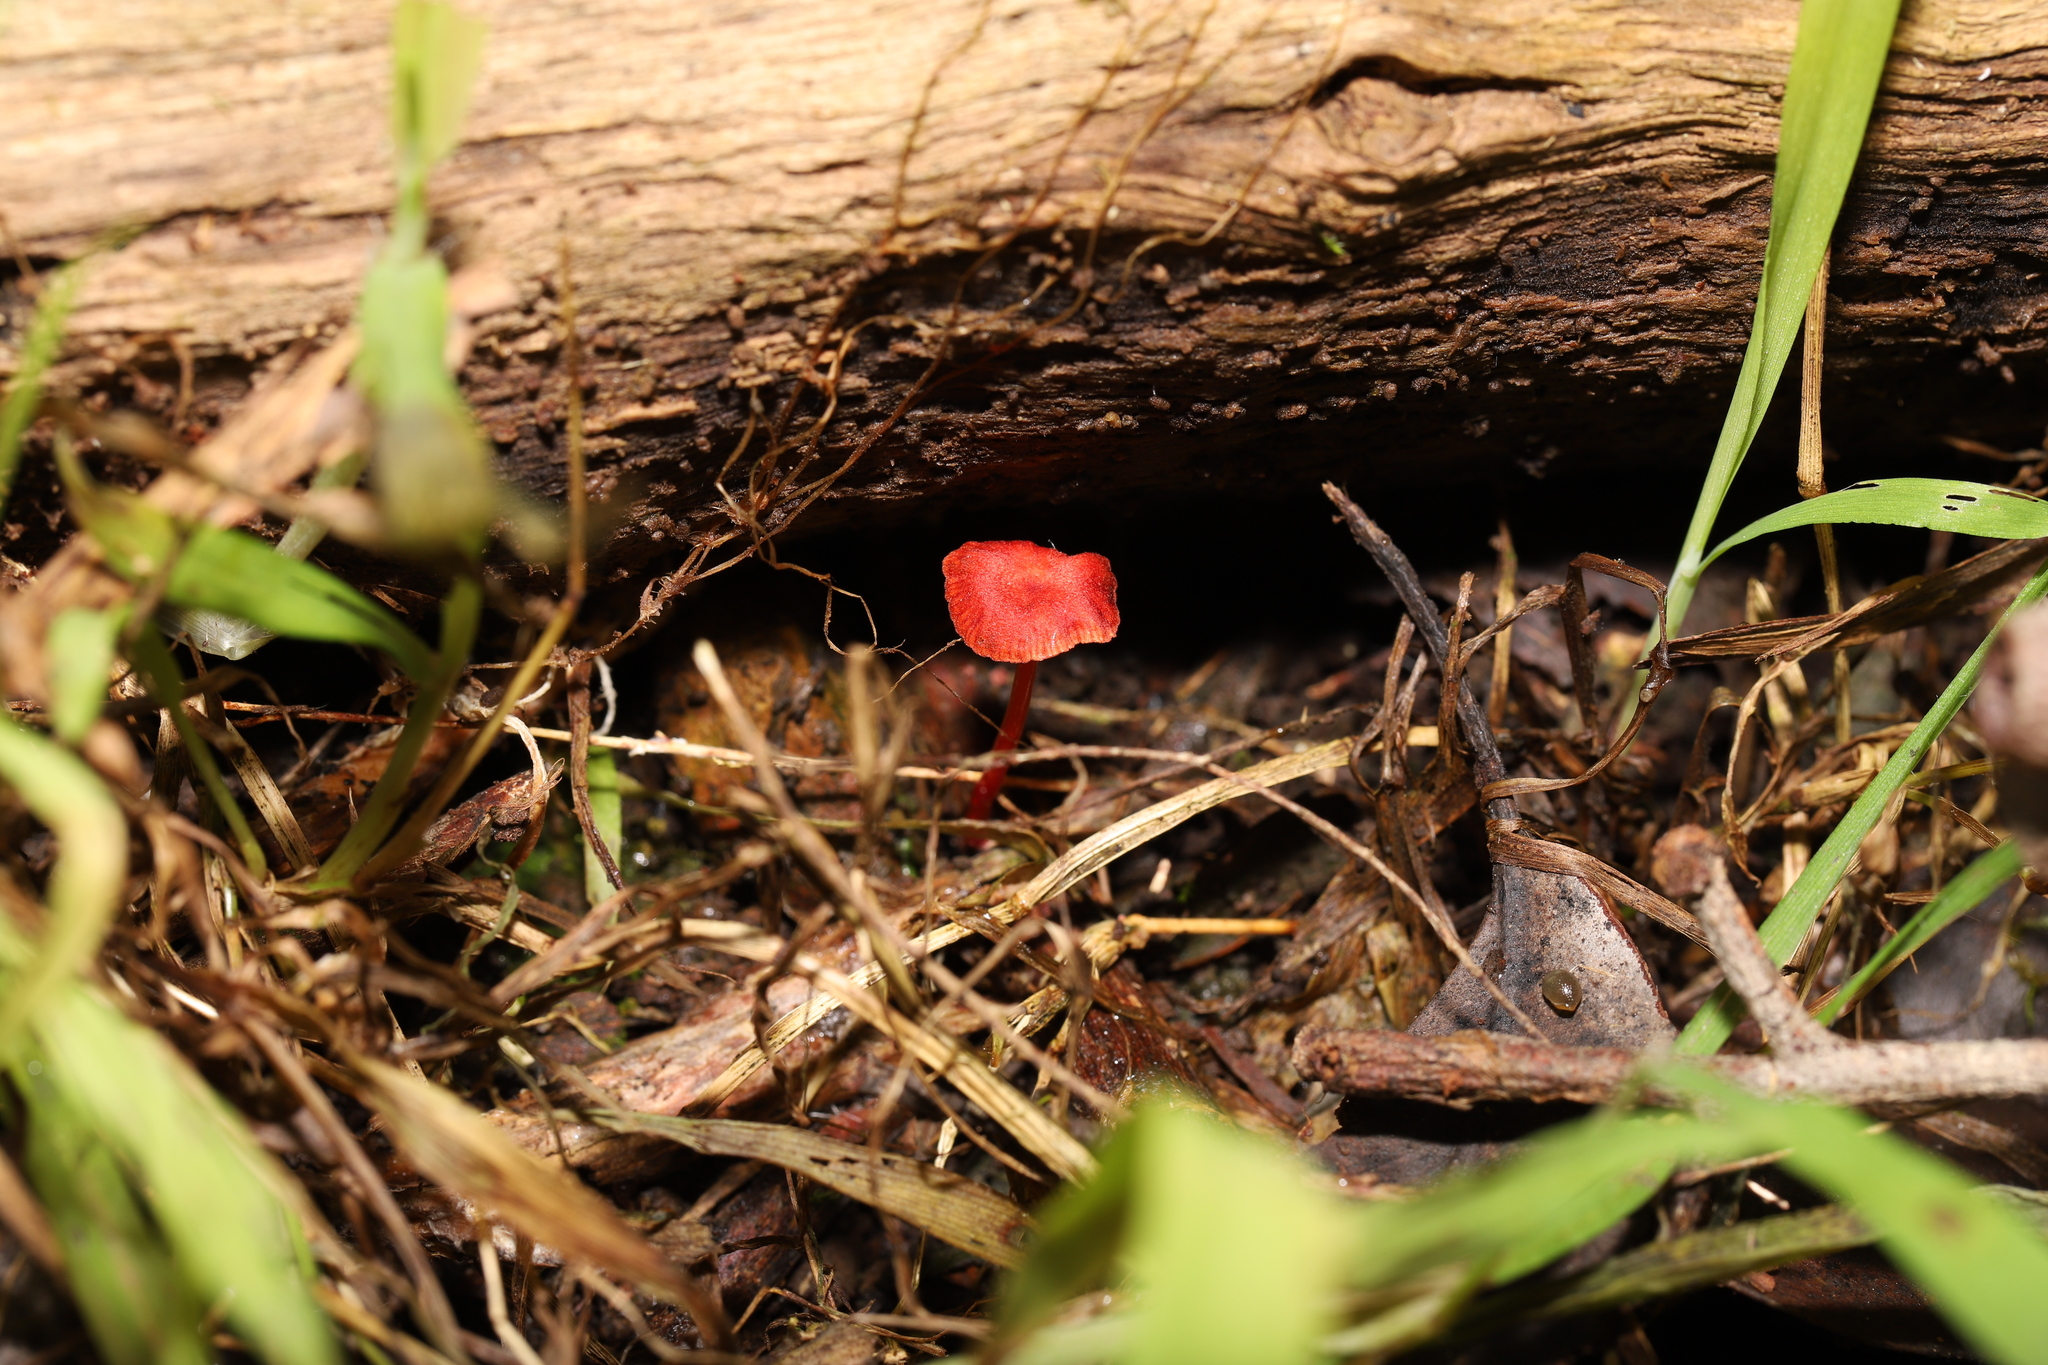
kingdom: Fungi
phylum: Basidiomycota
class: Agaricomycetes
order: Agaricales
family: Mycenaceae
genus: Cruentomycena
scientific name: Cruentomycena viscidocruenta
